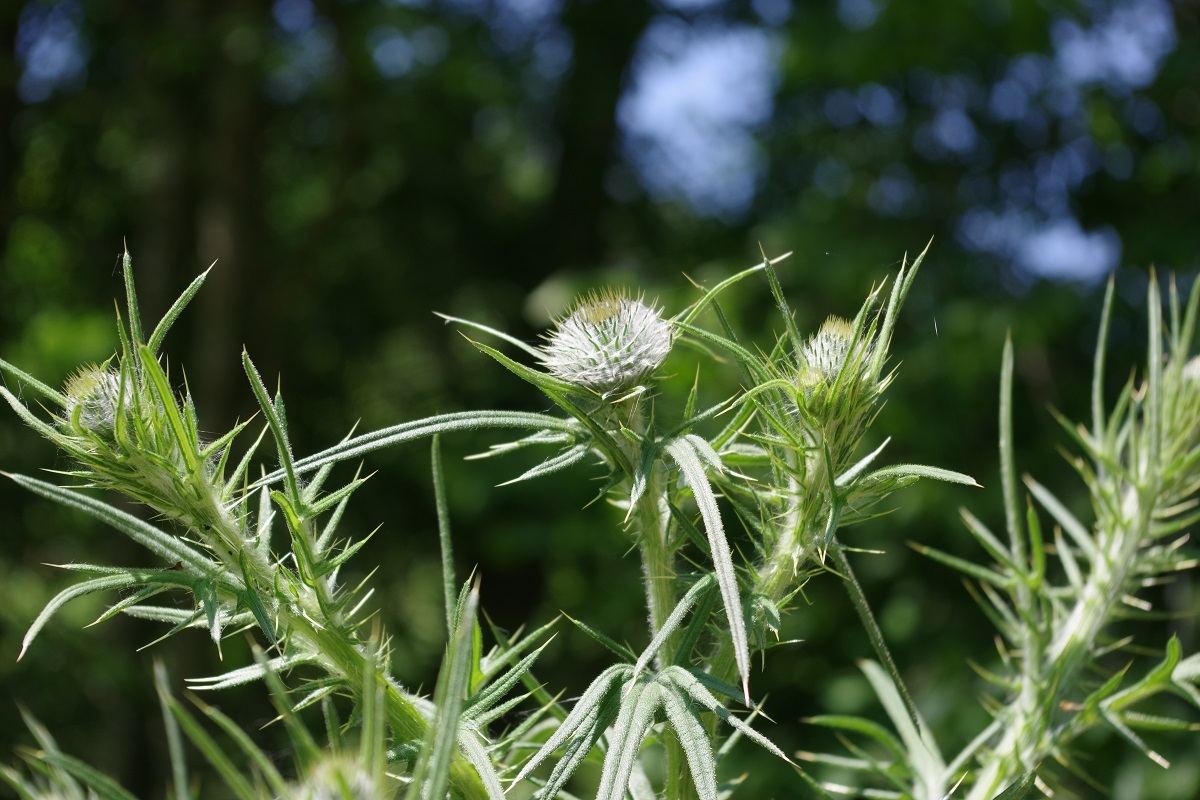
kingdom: Plantae
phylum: Tracheophyta
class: Magnoliopsida
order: Asterales
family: Asteraceae
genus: Cirsium
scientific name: Cirsium vulgare
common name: Bull thistle
